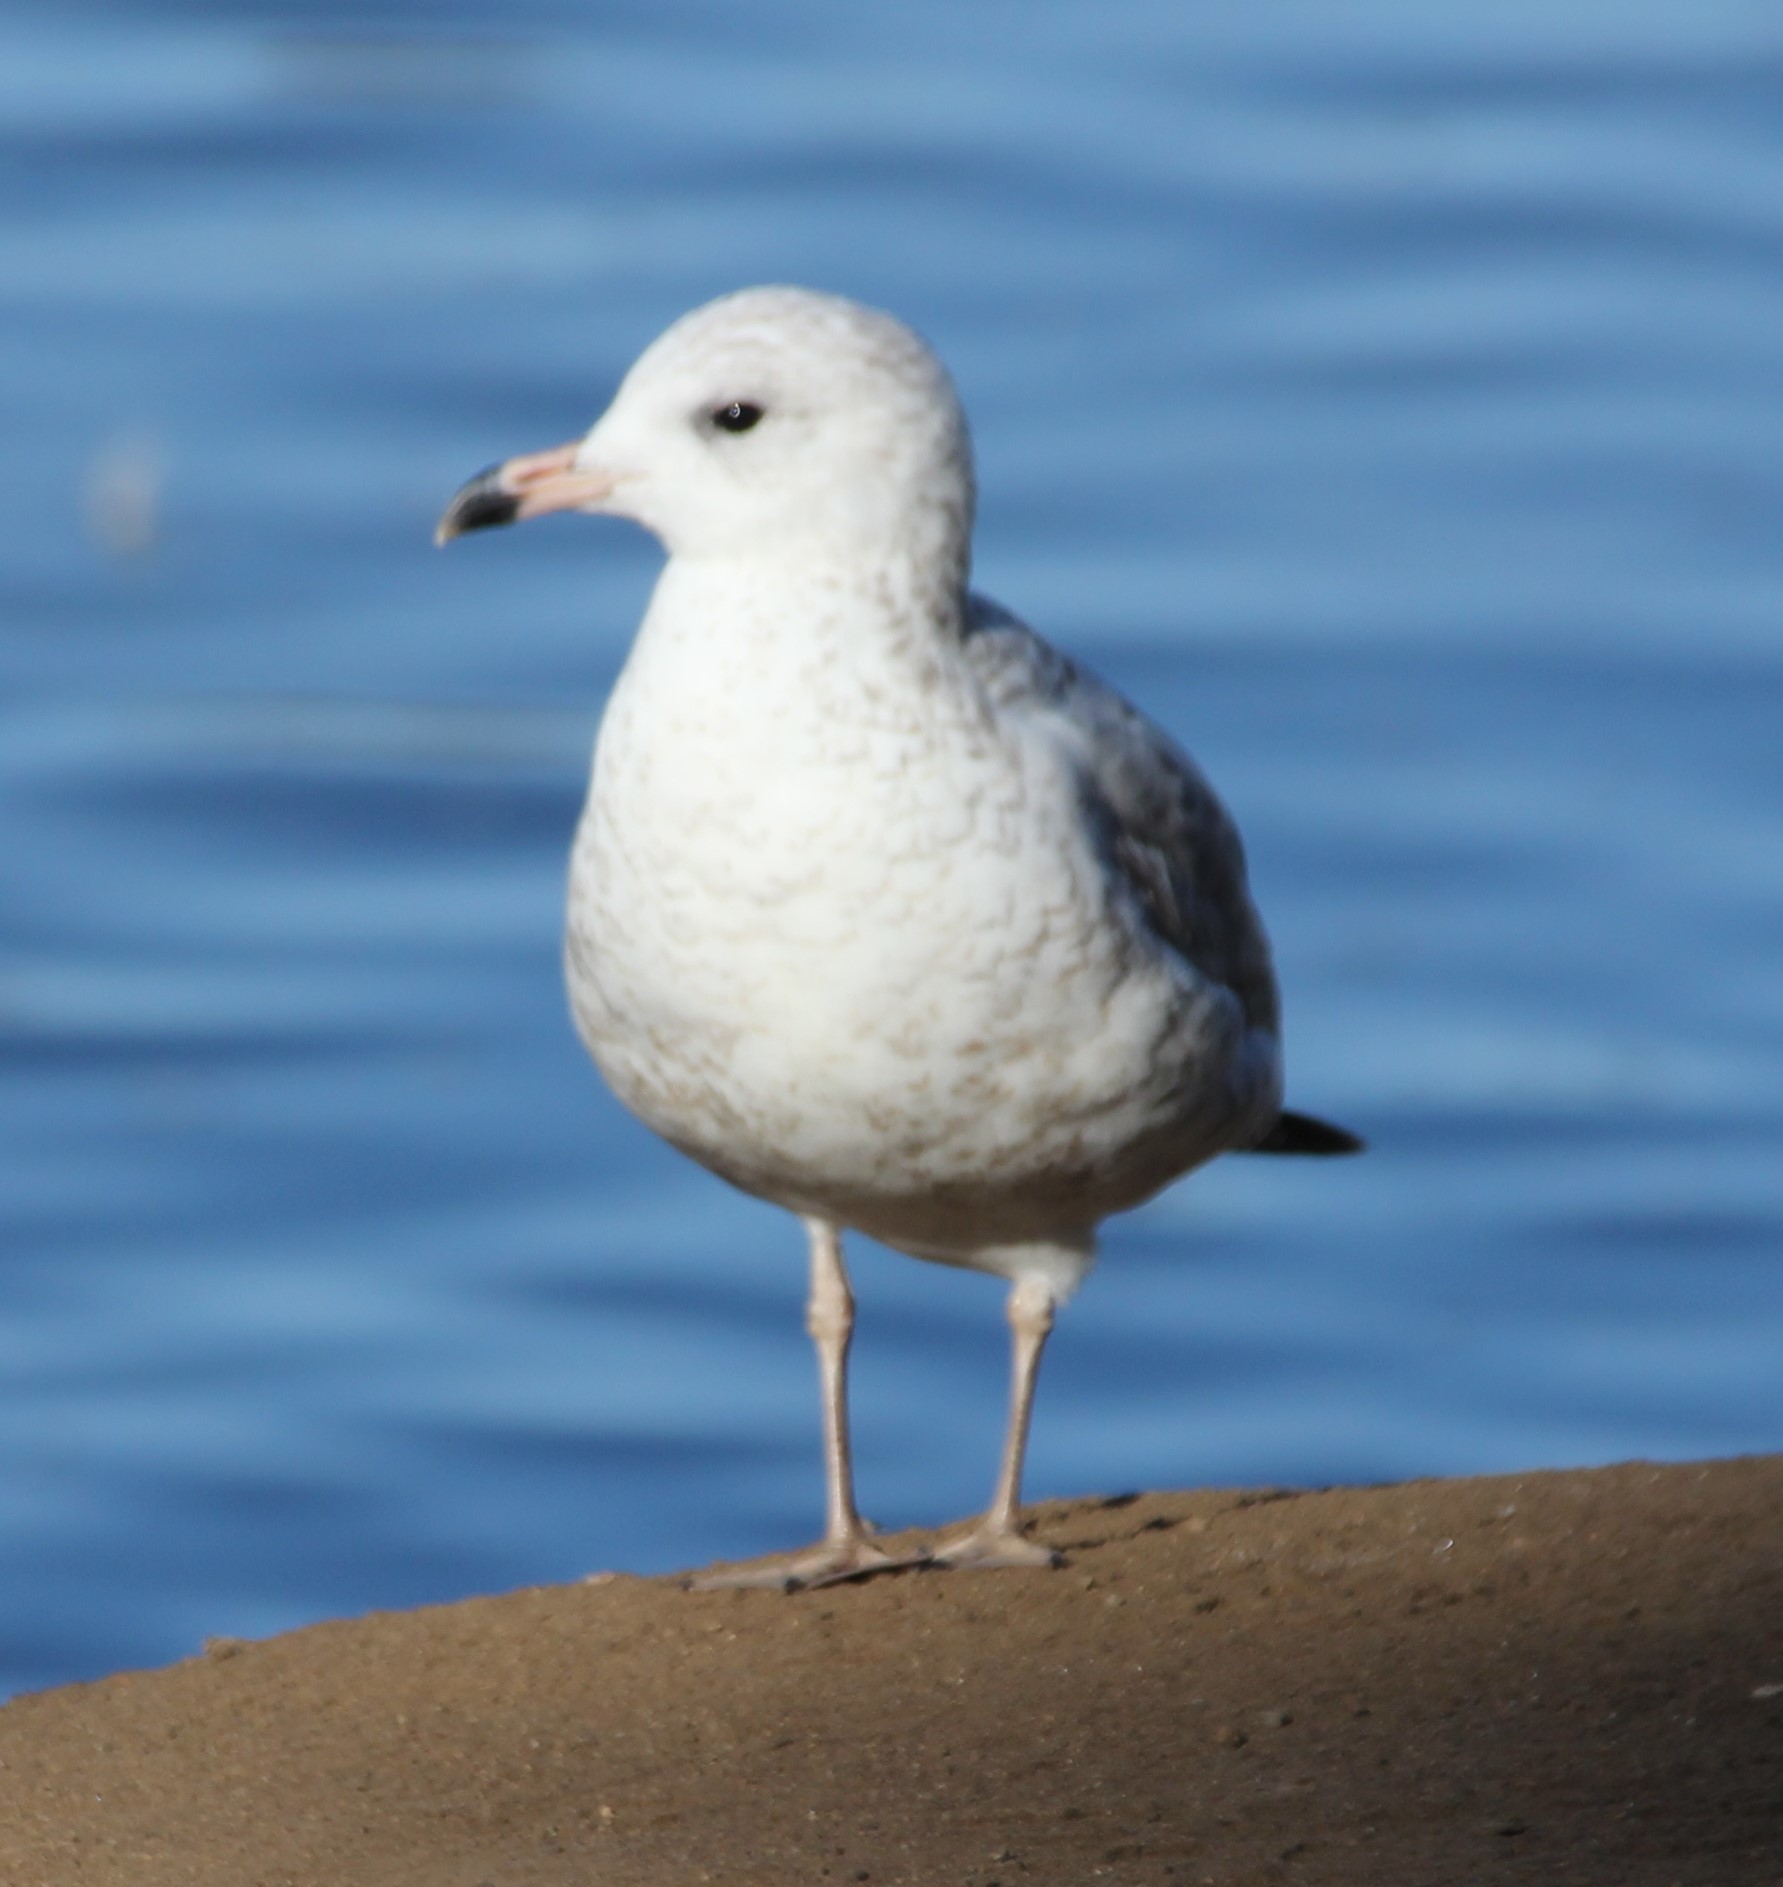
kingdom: Animalia
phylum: Chordata
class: Aves
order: Charadriiformes
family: Laridae
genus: Larus
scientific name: Larus delawarensis
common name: Ring-billed gull
